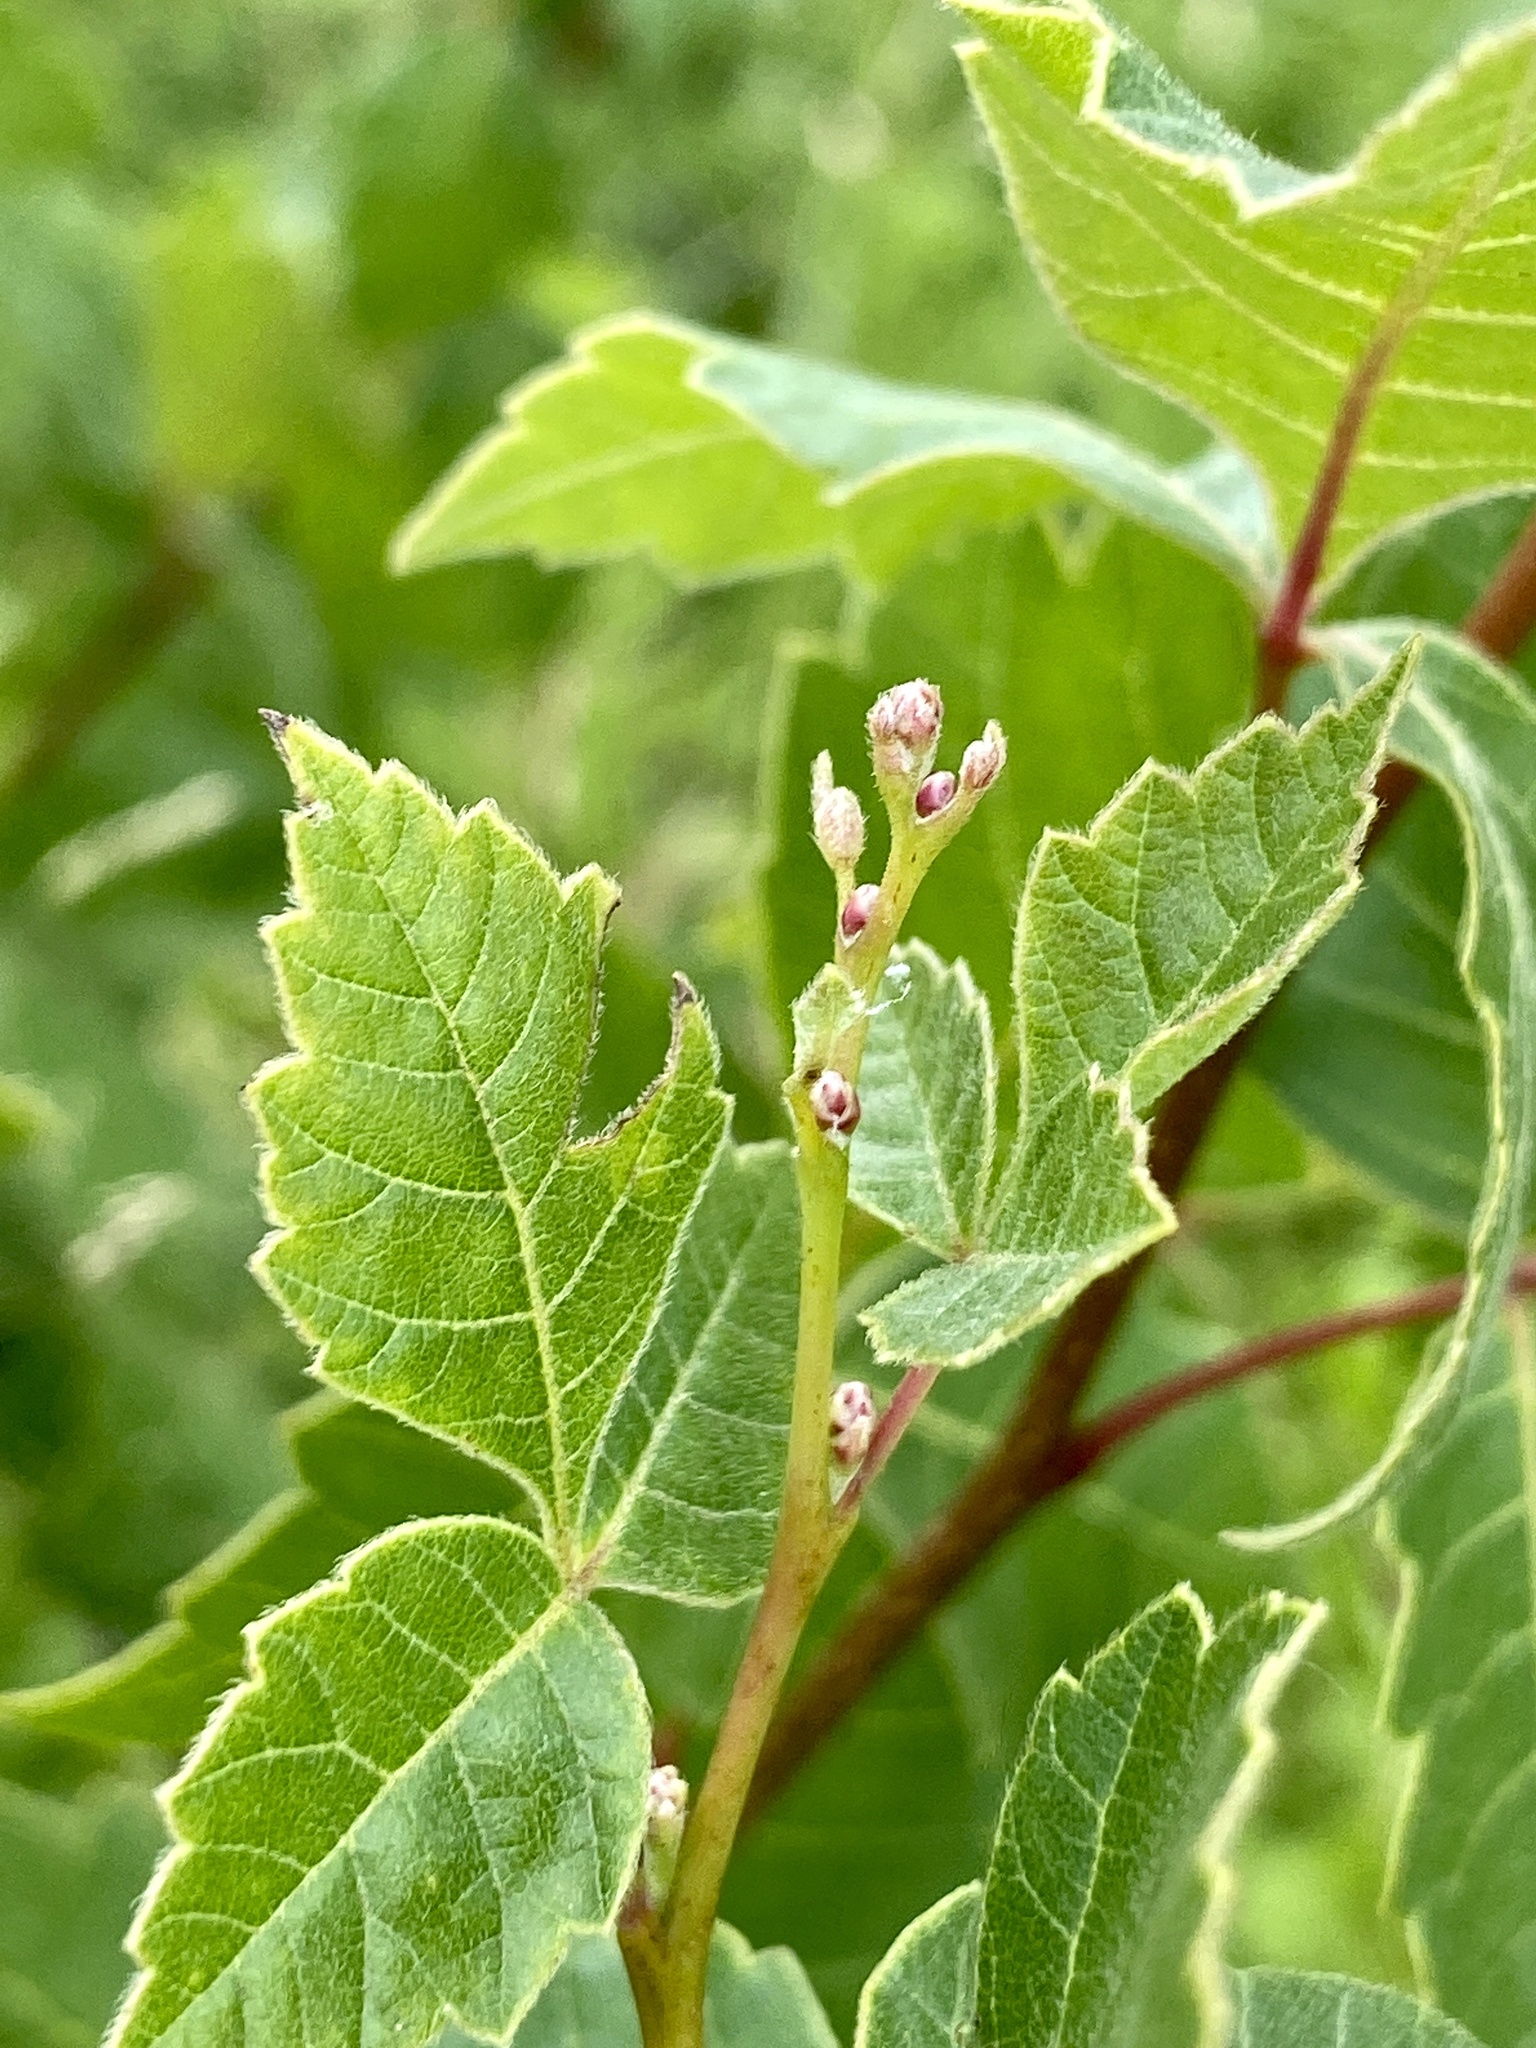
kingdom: Plantae
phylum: Tracheophyta
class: Magnoliopsida
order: Sapindales
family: Anacardiaceae
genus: Rhus
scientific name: Rhus aromatica
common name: Aromatic sumac
